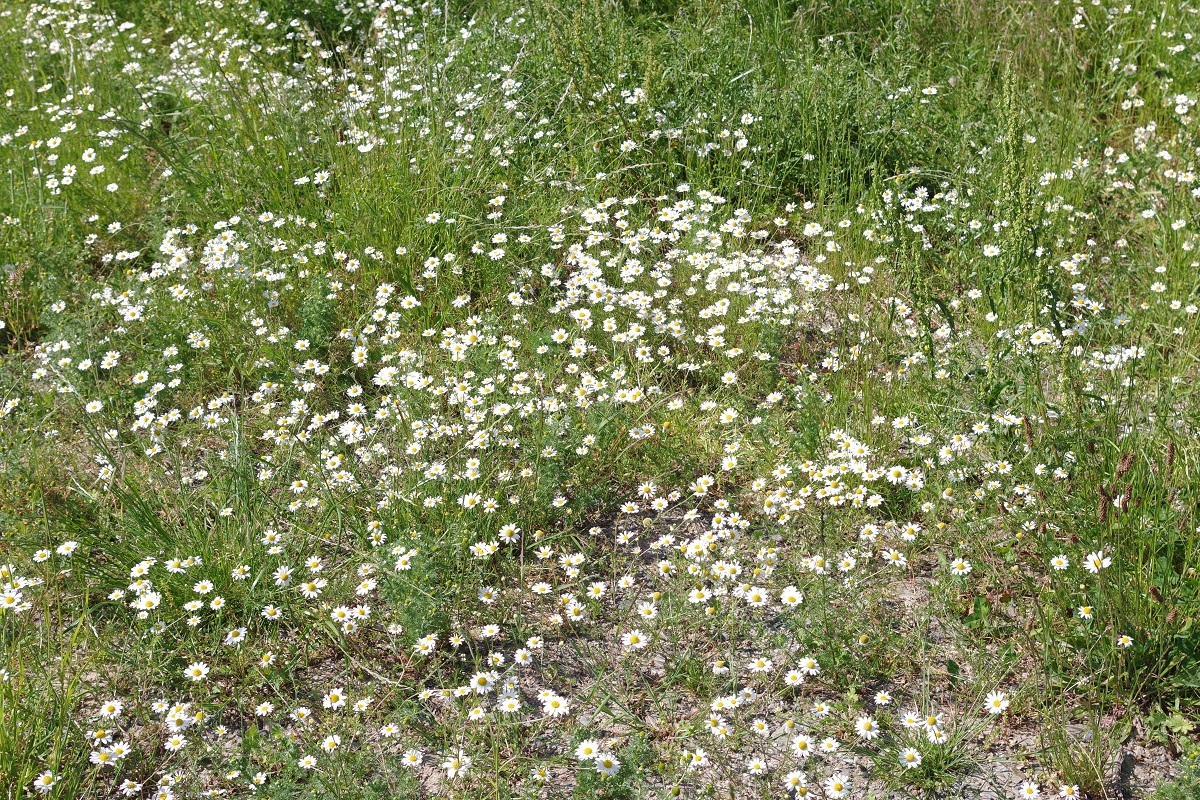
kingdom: Plantae
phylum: Tracheophyta
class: Magnoliopsida
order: Asterales
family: Asteraceae
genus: Matricaria
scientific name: Matricaria chamomilla
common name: Scented mayweed
